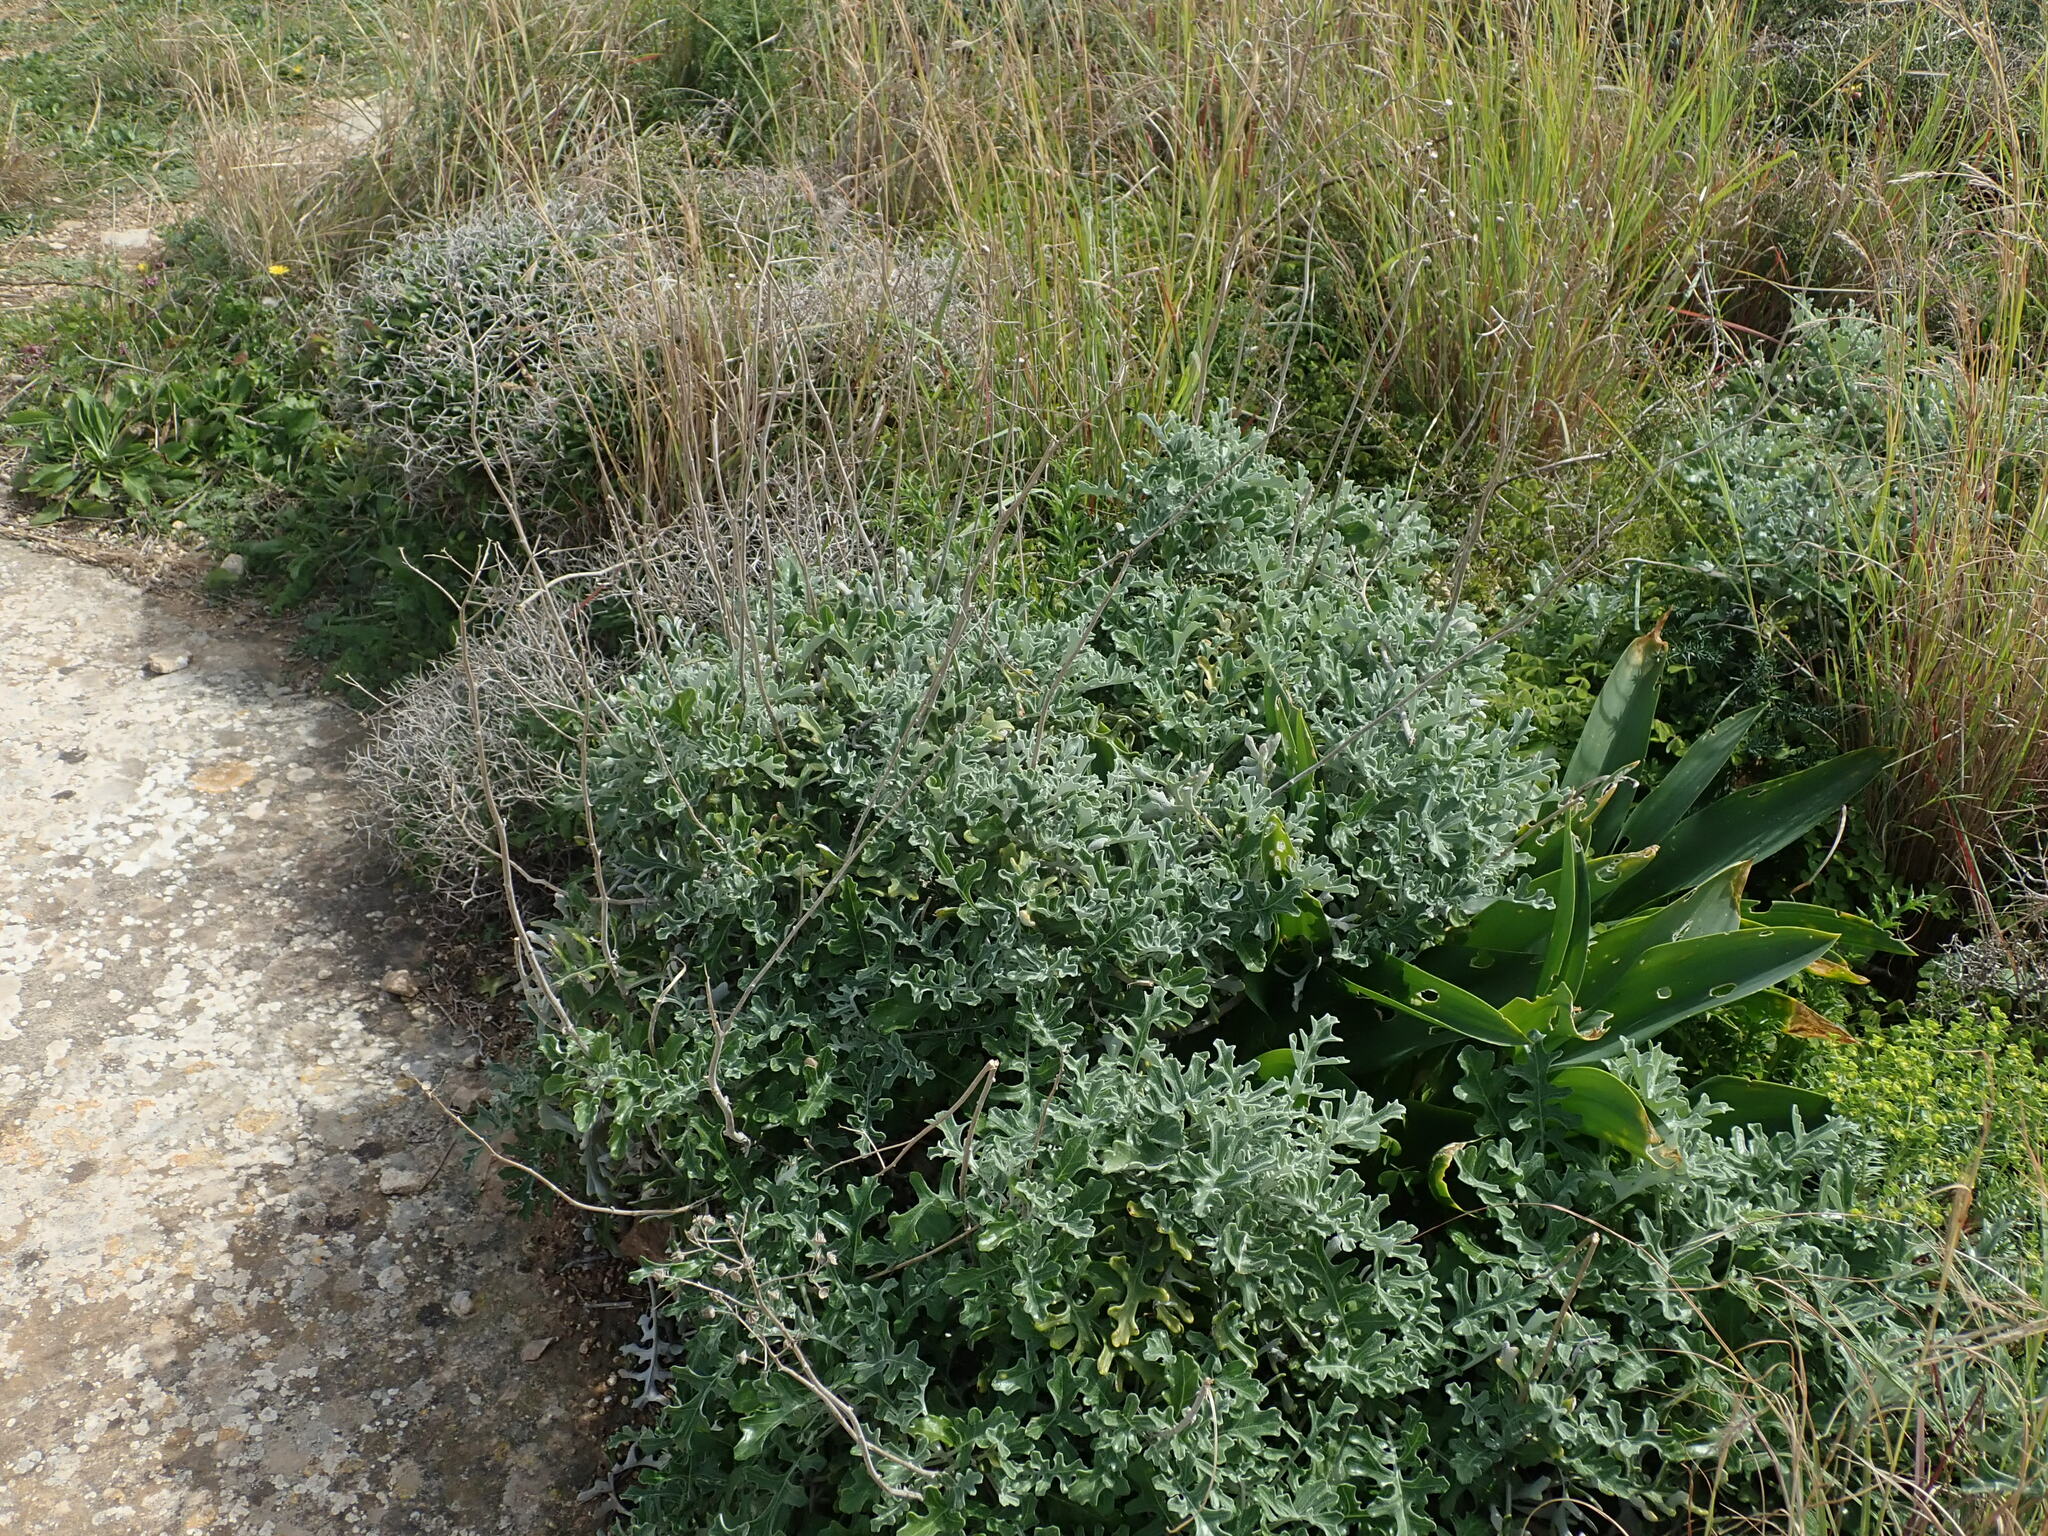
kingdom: Plantae
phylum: Tracheophyta
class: Magnoliopsida
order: Asterales
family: Asteraceae
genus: Jacobaea
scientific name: Jacobaea maritima
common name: Silver ragwort
